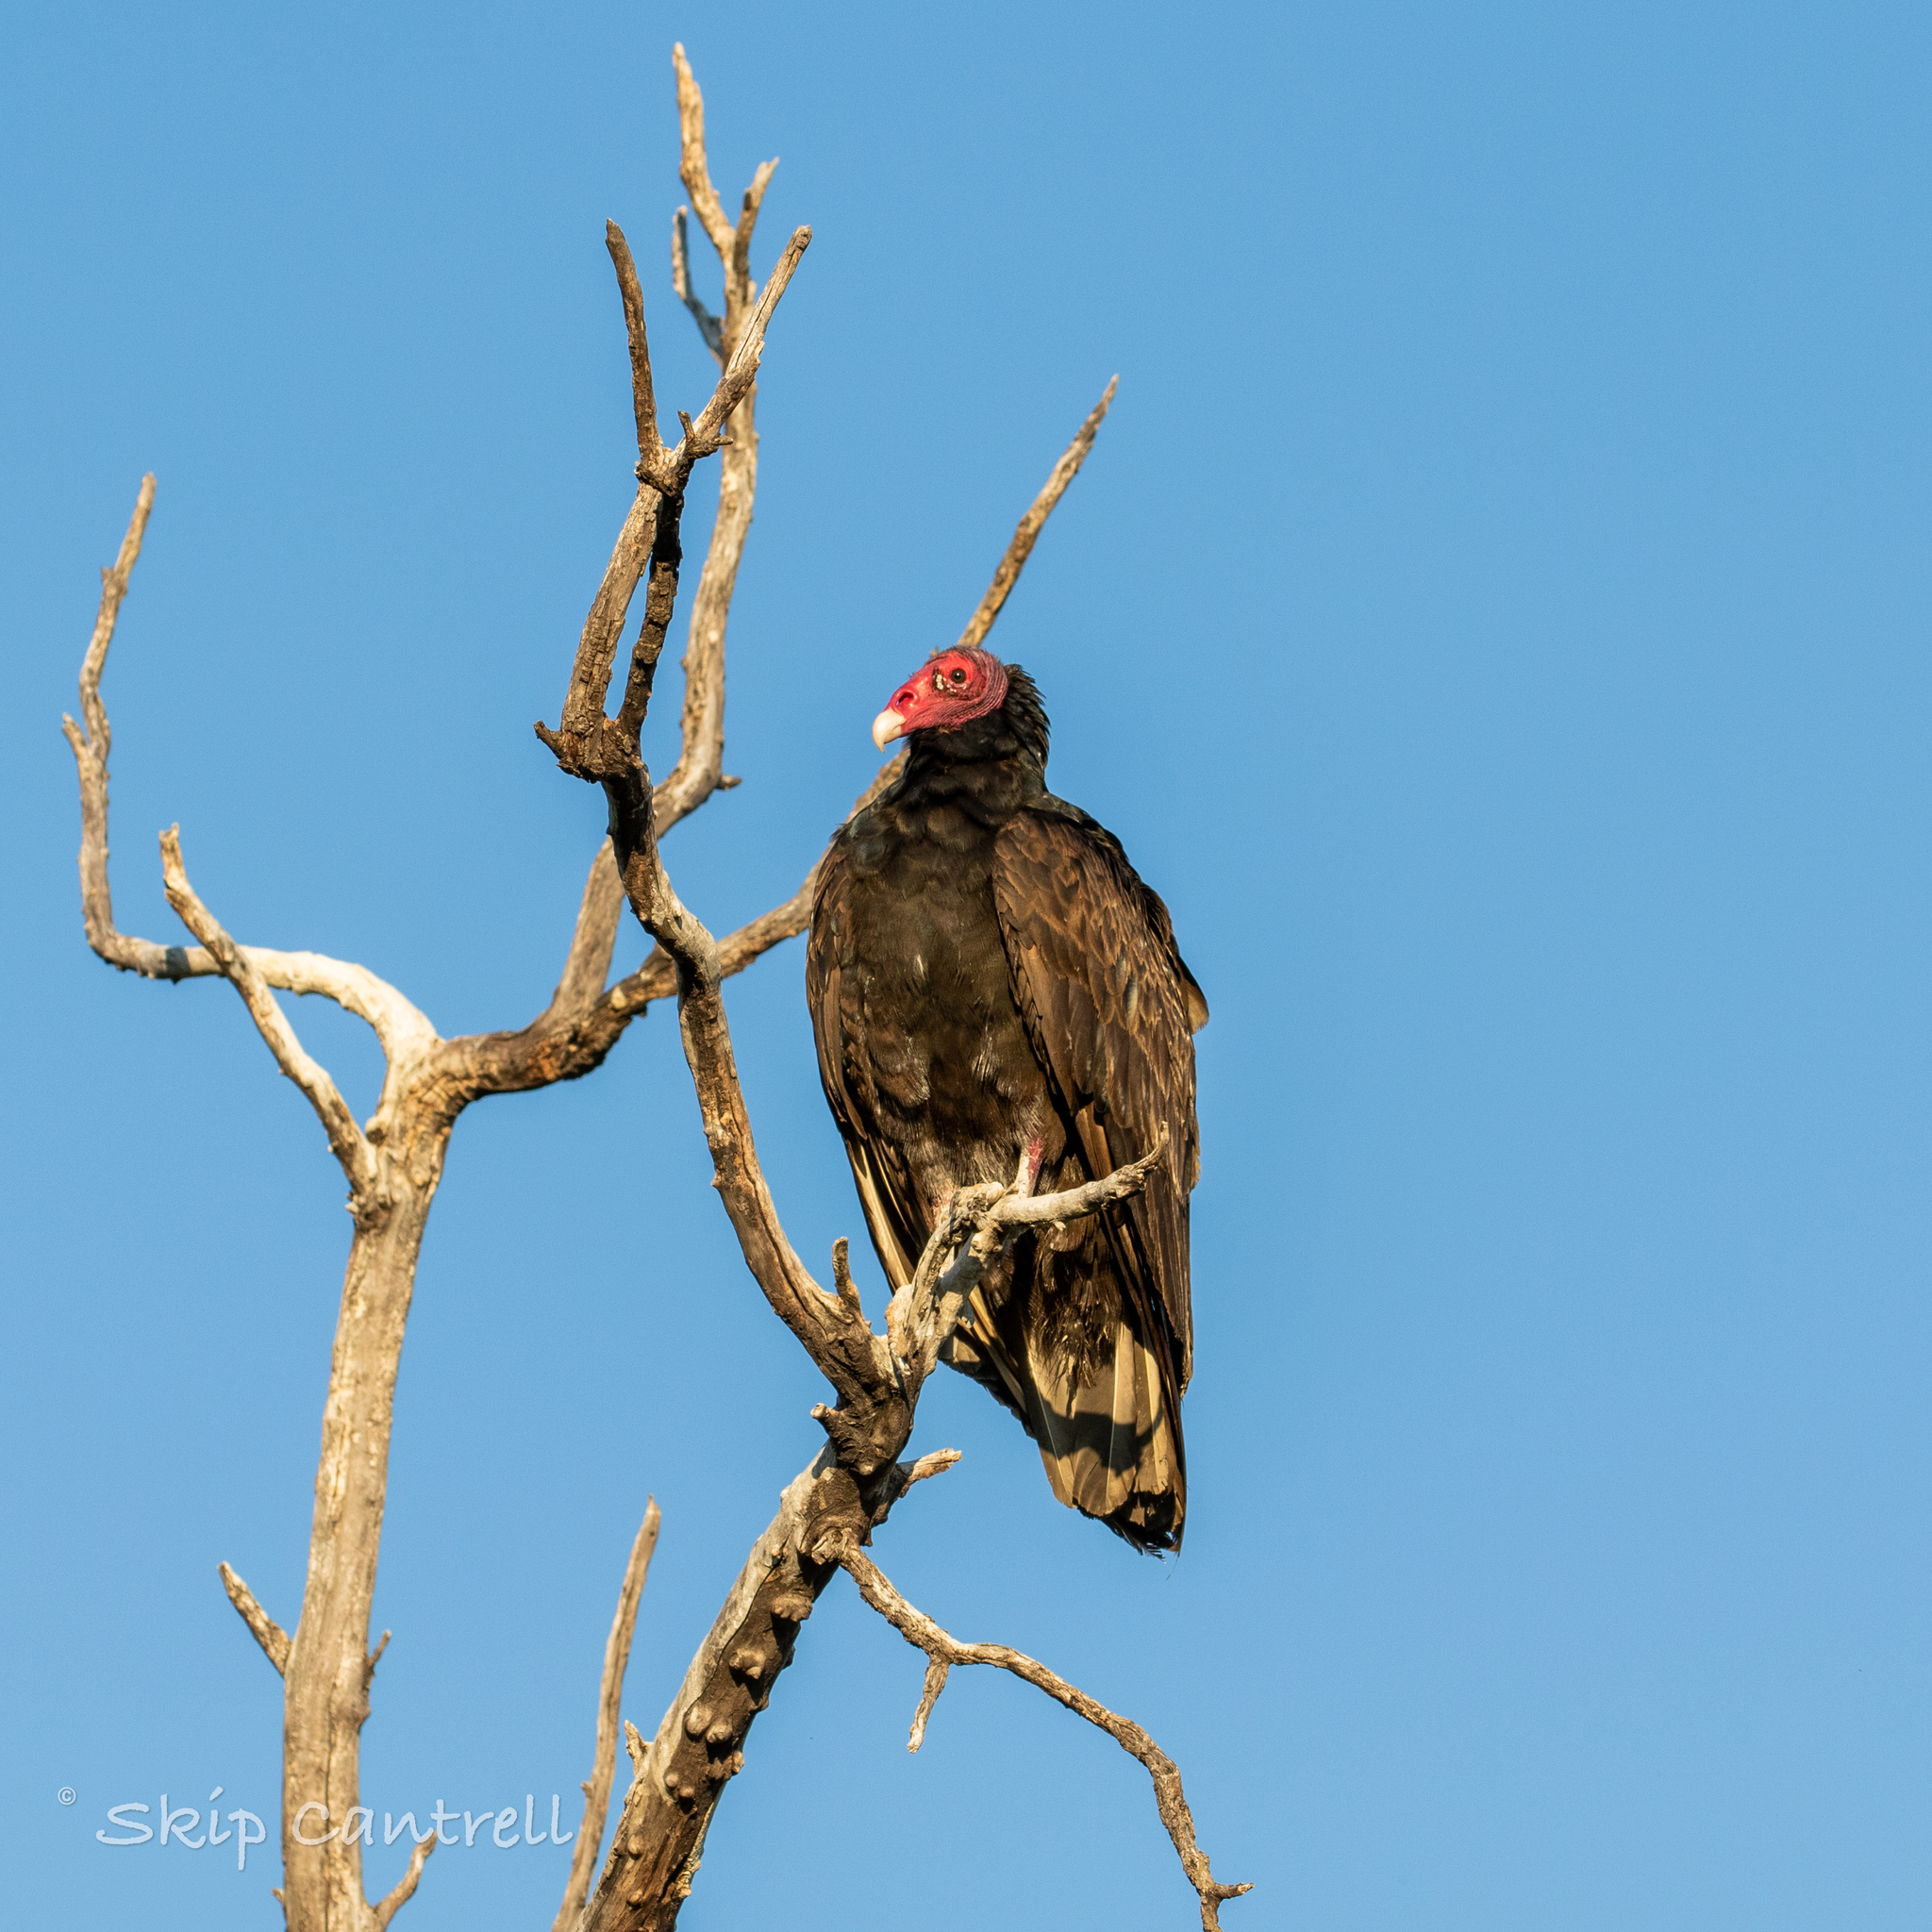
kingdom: Animalia
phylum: Chordata
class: Aves
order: Accipitriformes
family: Cathartidae
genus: Cathartes
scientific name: Cathartes aura
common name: Turkey vulture
